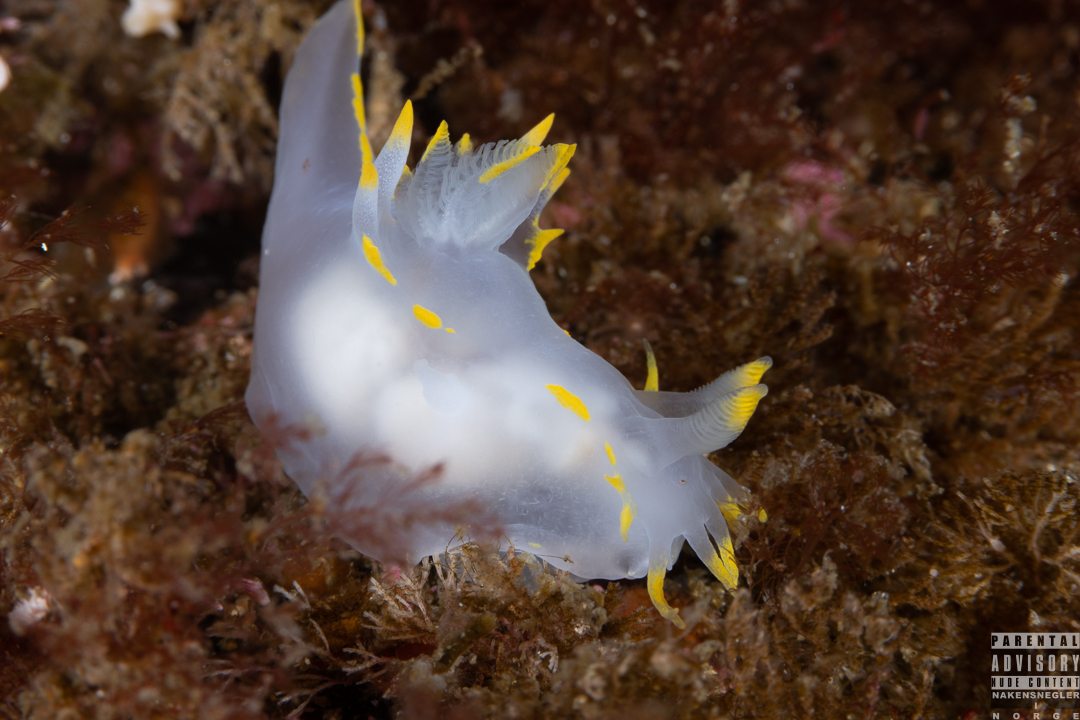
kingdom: Animalia
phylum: Mollusca
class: Gastropoda
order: Nudibranchia
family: Polyceridae
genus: Polycera
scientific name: Polycera faeroensis
